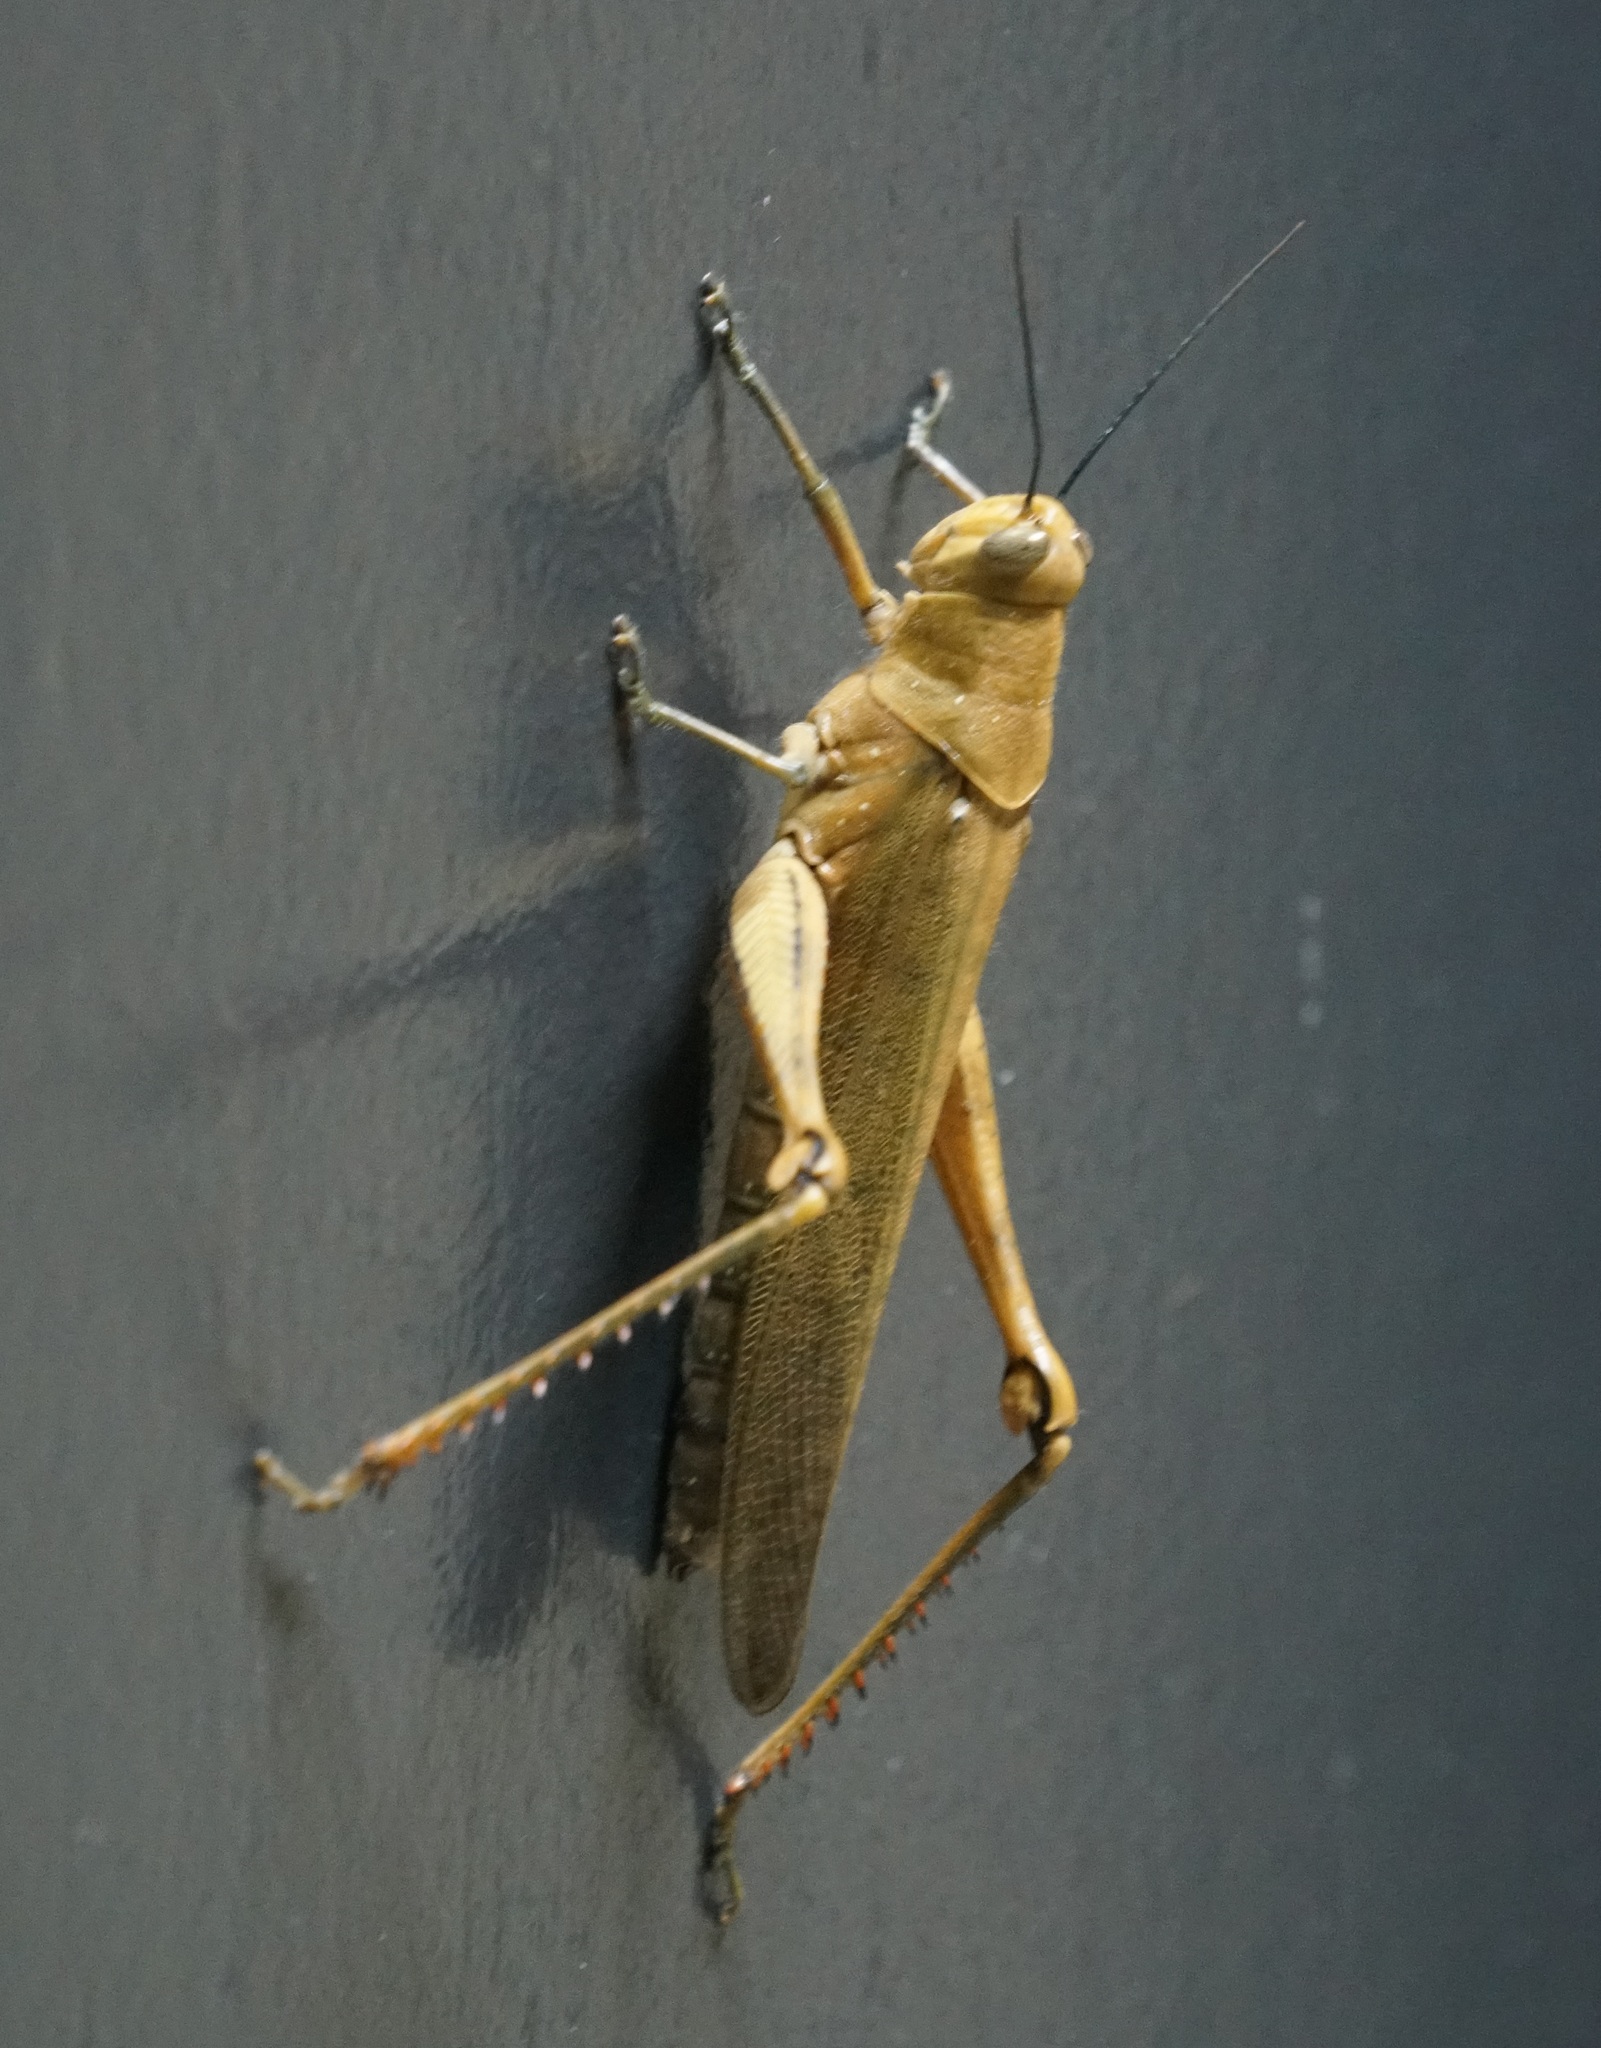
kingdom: Animalia
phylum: Arthropoda
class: Insecta
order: Orthoptera
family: Acrididae
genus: Valanga
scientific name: Valanga irregularis
